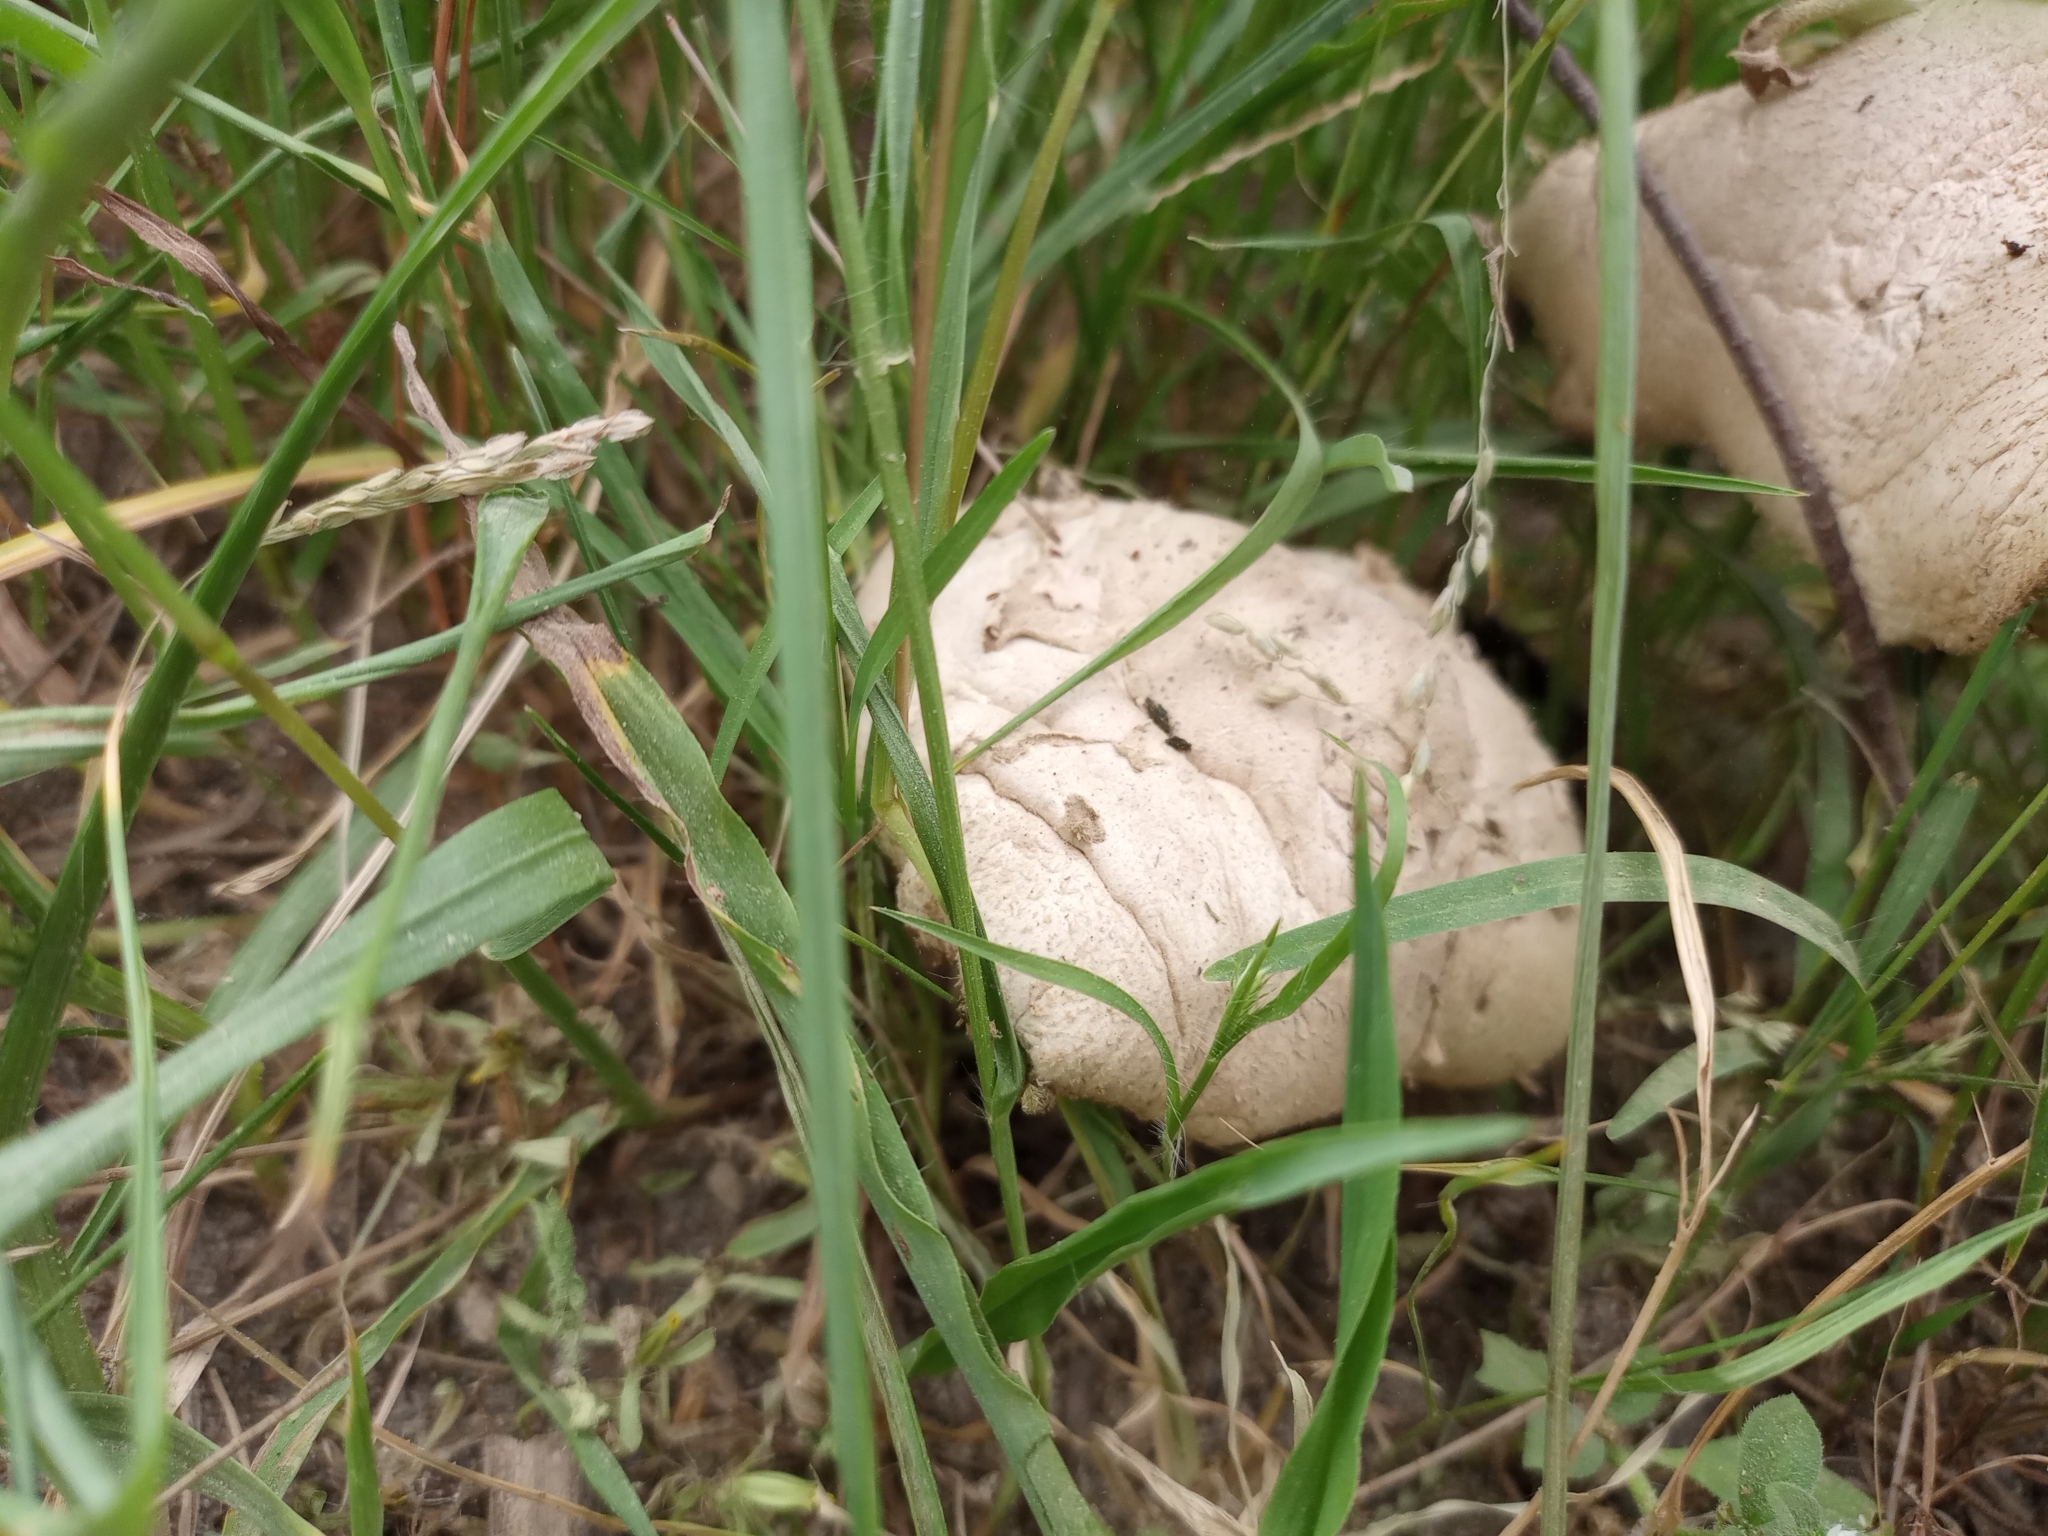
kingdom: Fungi
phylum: Basidiomycota
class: Agaricomycetes
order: Agaricales
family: Agaricaceae
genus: Chlorophyllum
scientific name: Chlorophyllum molybdites
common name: False parasol
